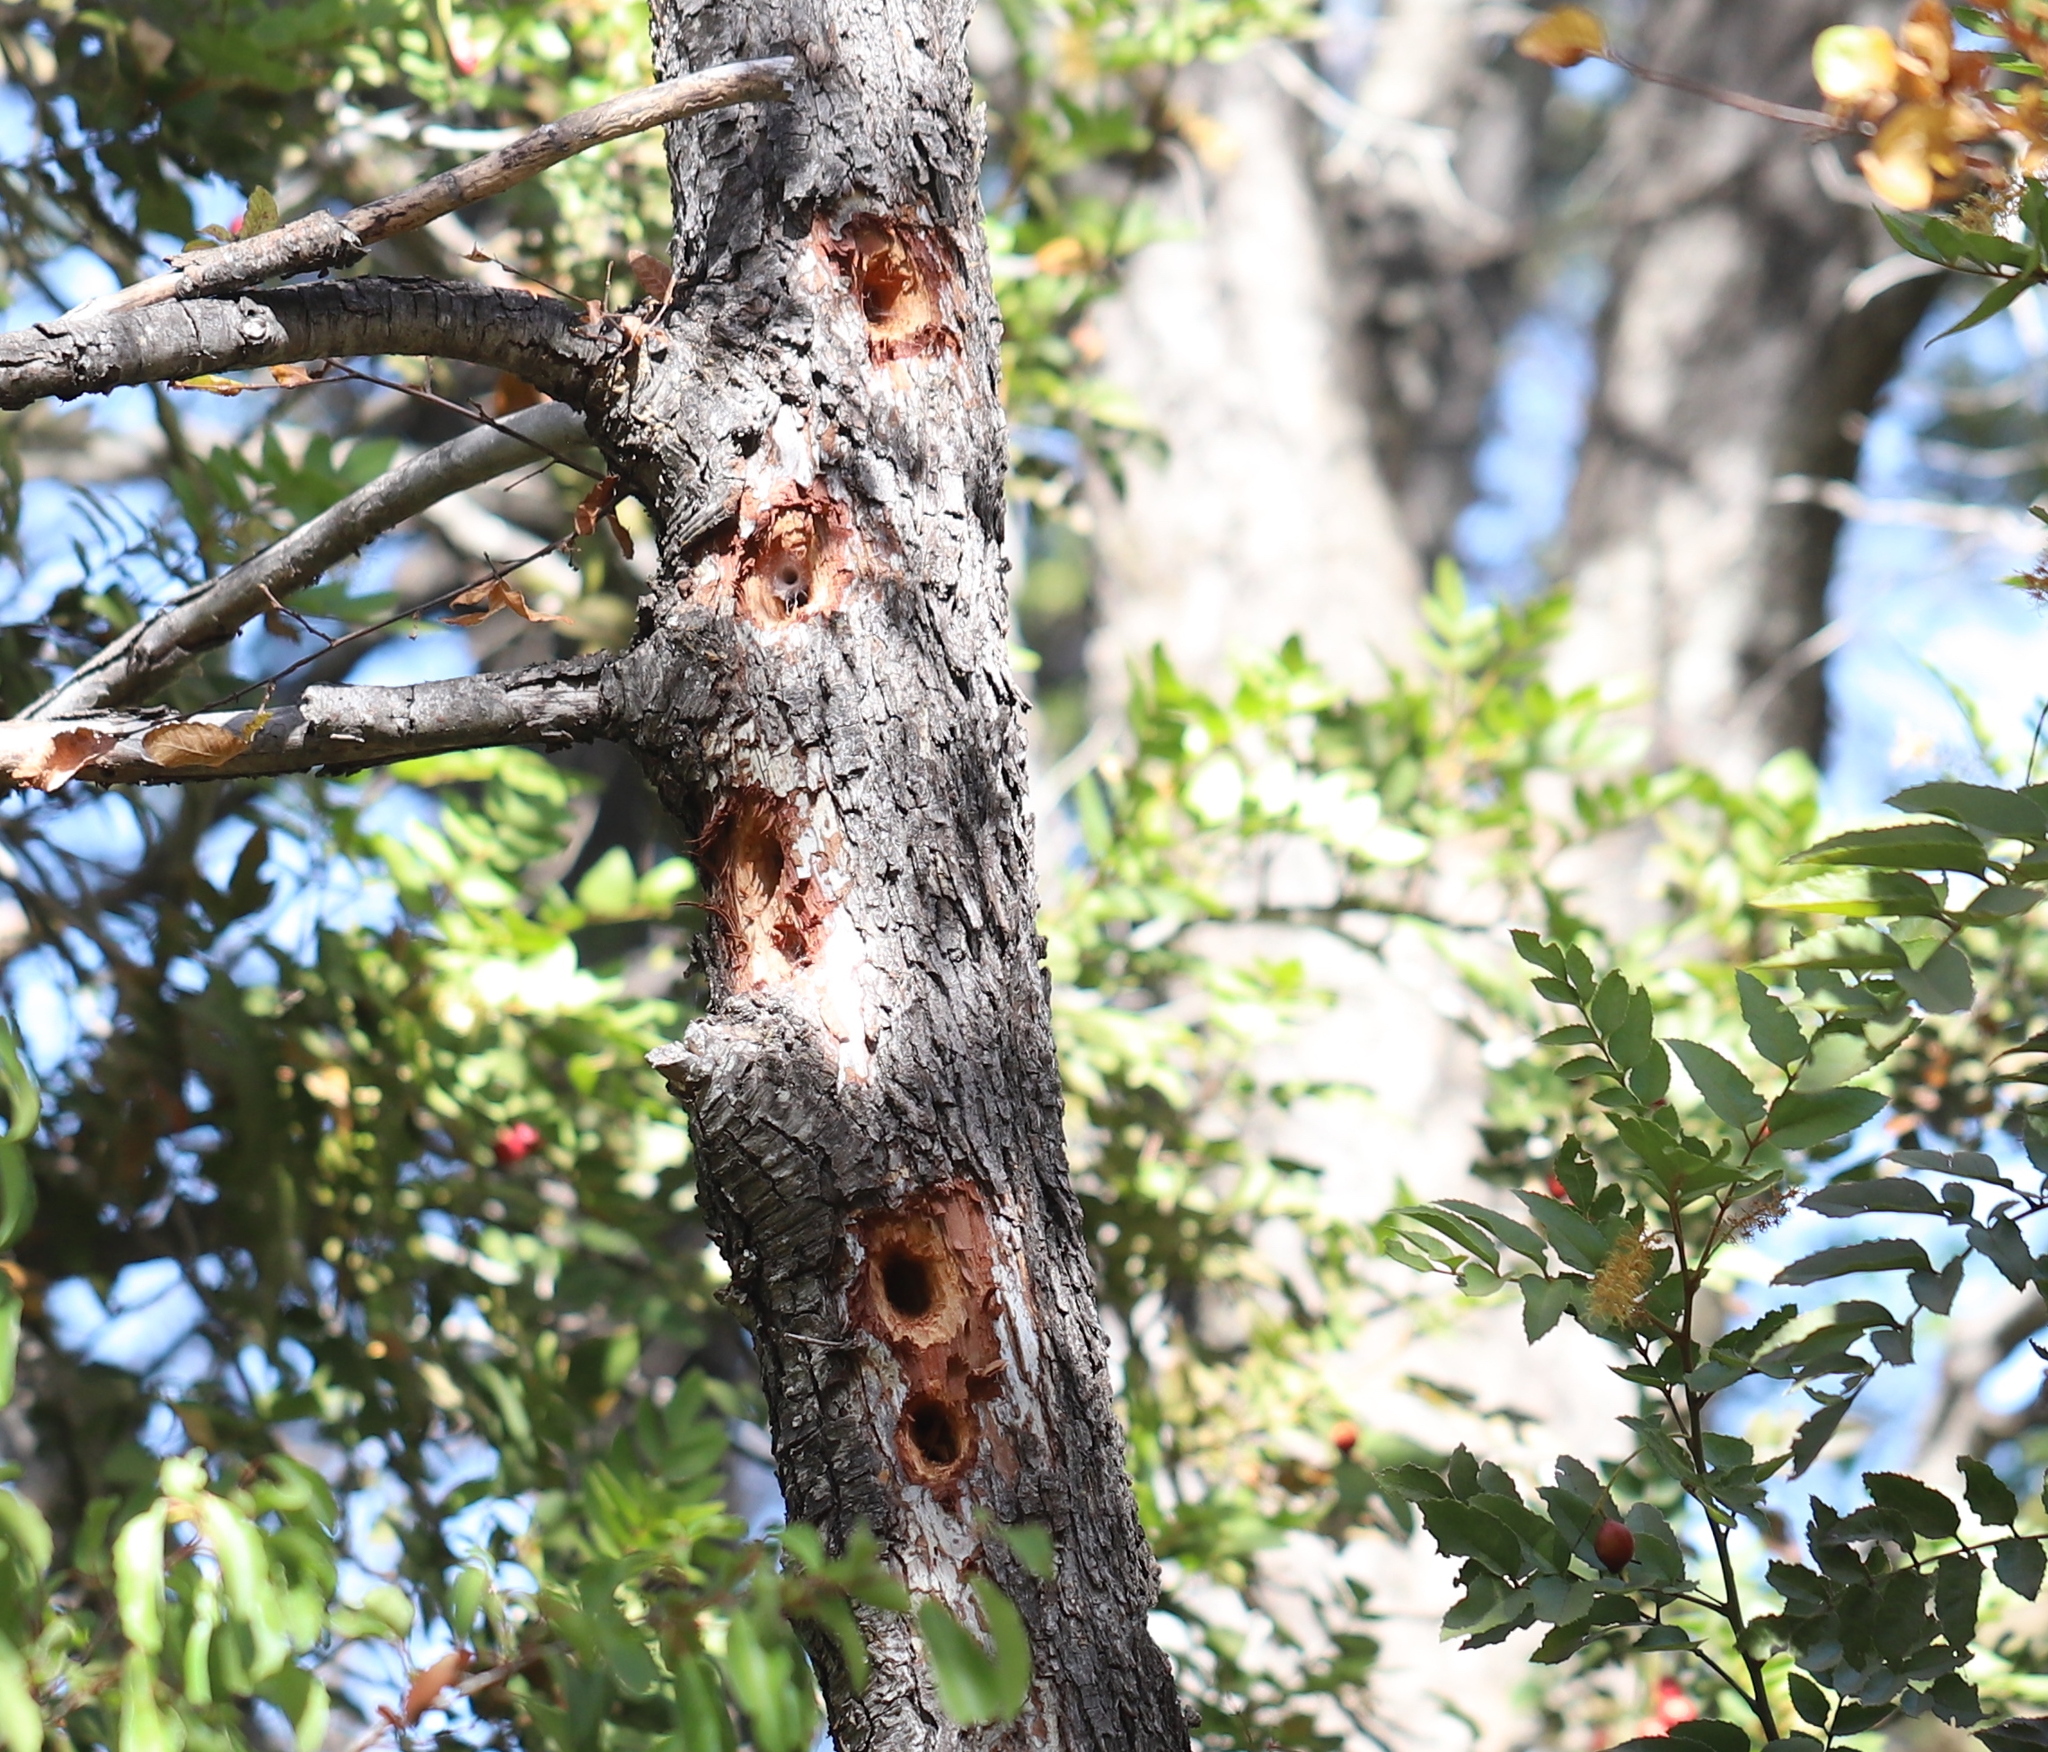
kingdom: Animalia
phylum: Chordata
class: Aves
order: Piciformes
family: Picidae
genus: Campephilus
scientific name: Campephilus magellanicus
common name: Magellanic woodpecker
